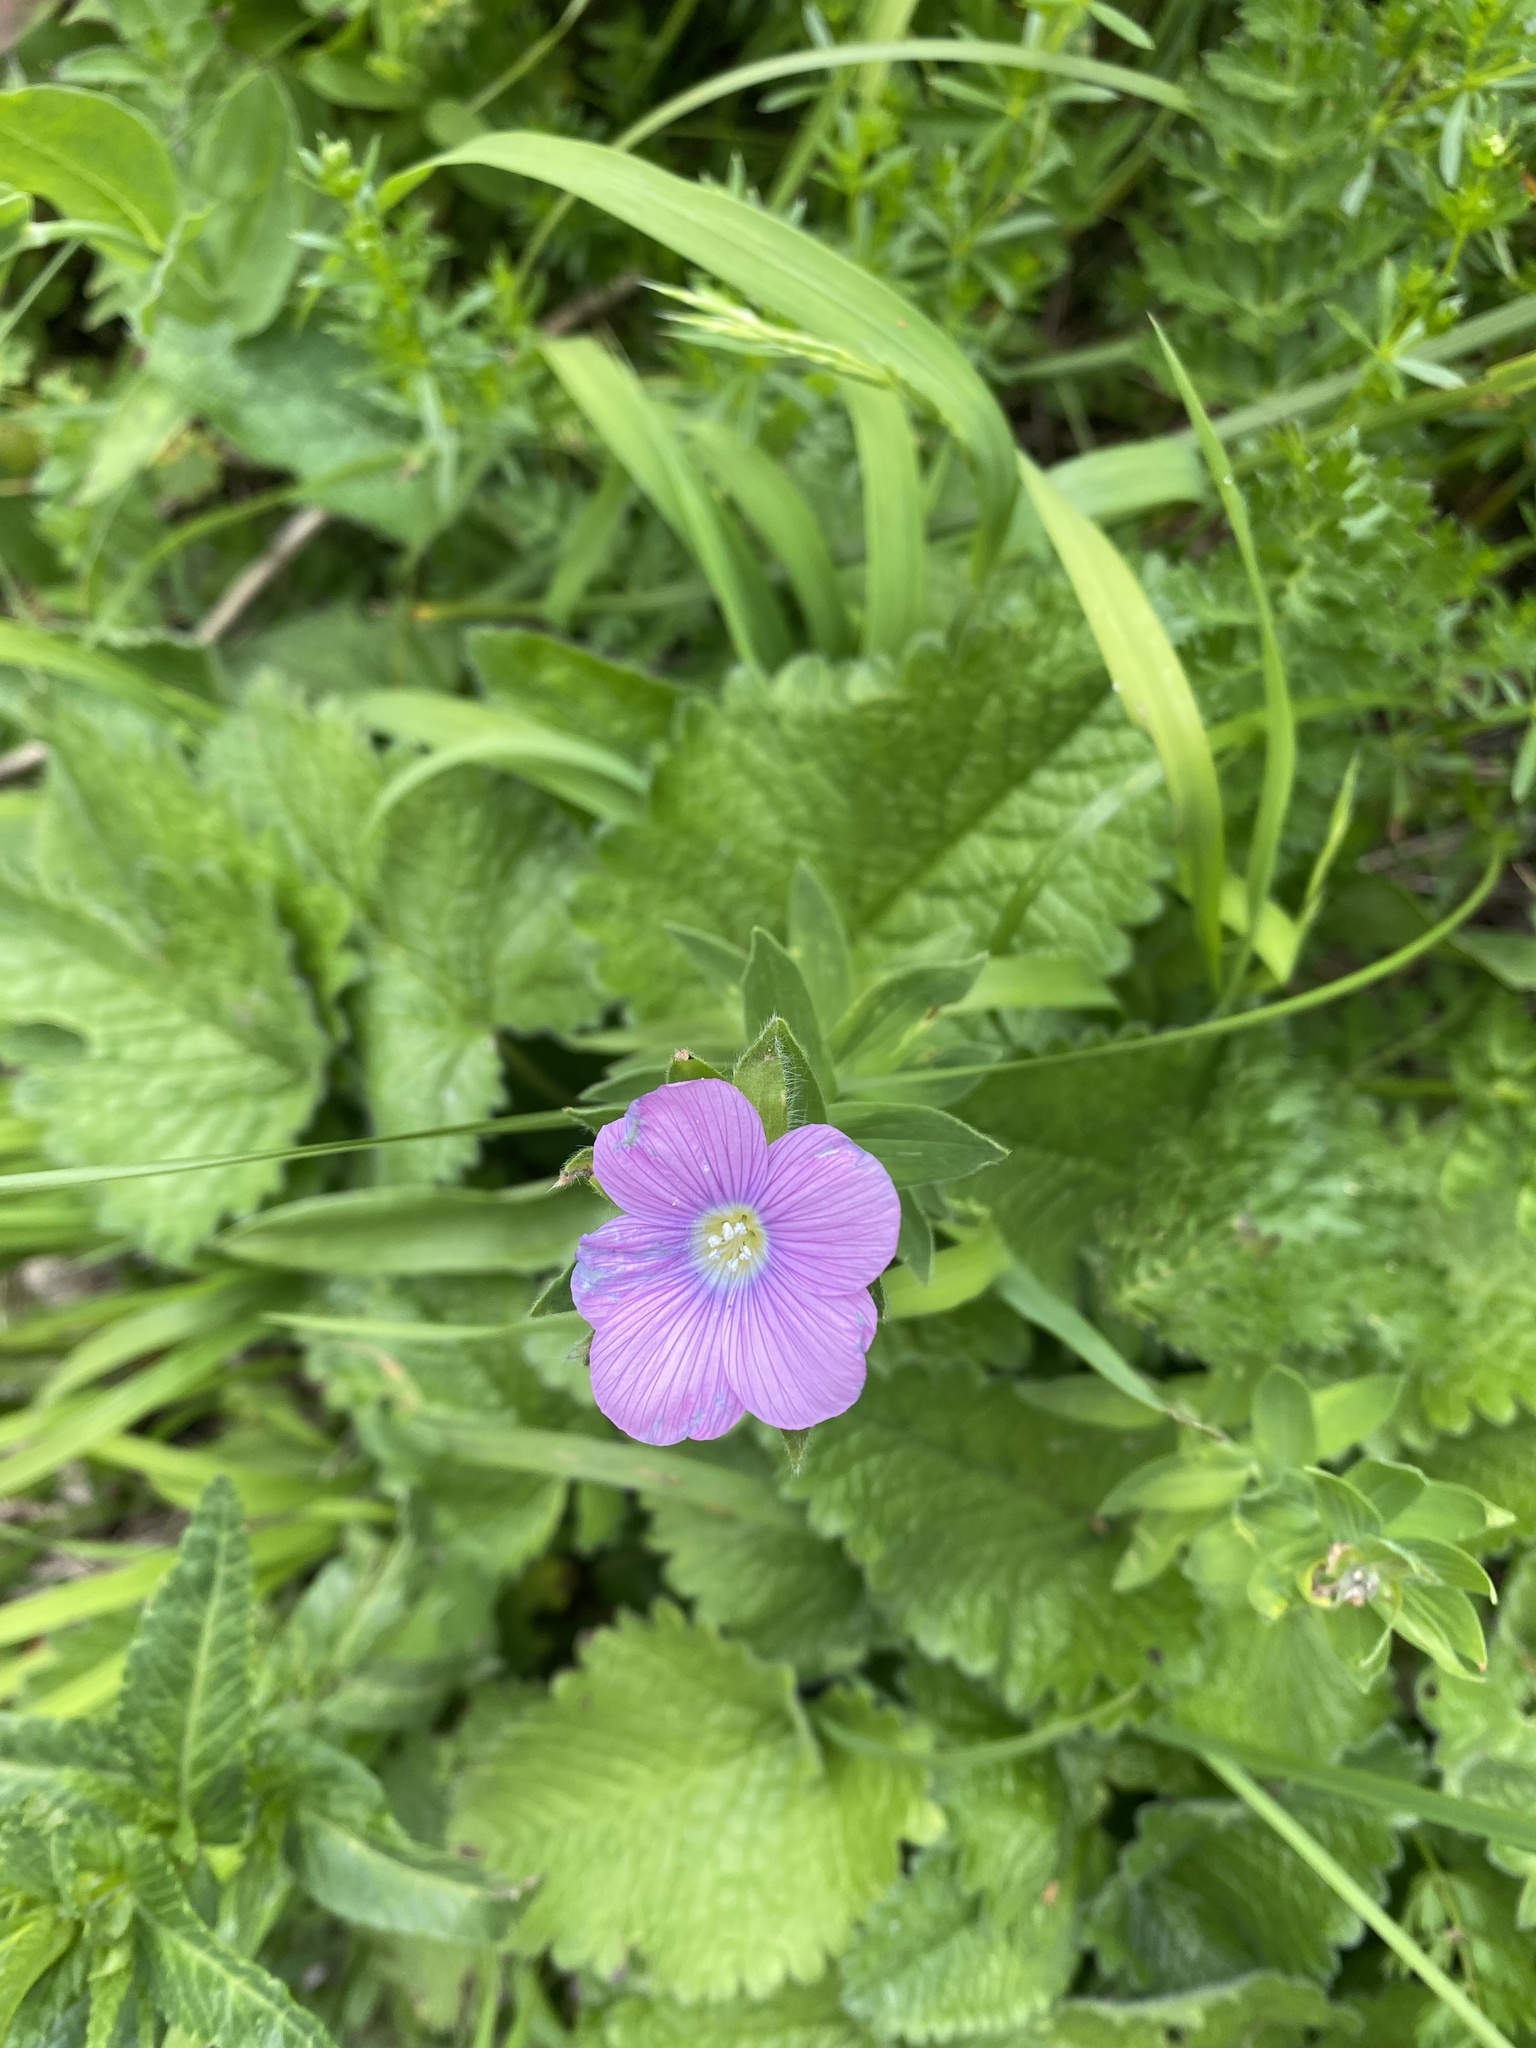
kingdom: Plantae
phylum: Tracheophyta
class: Magnoliopsida
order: Malpighiales
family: Linaceae
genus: Linum
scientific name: Linum hypericifolium
